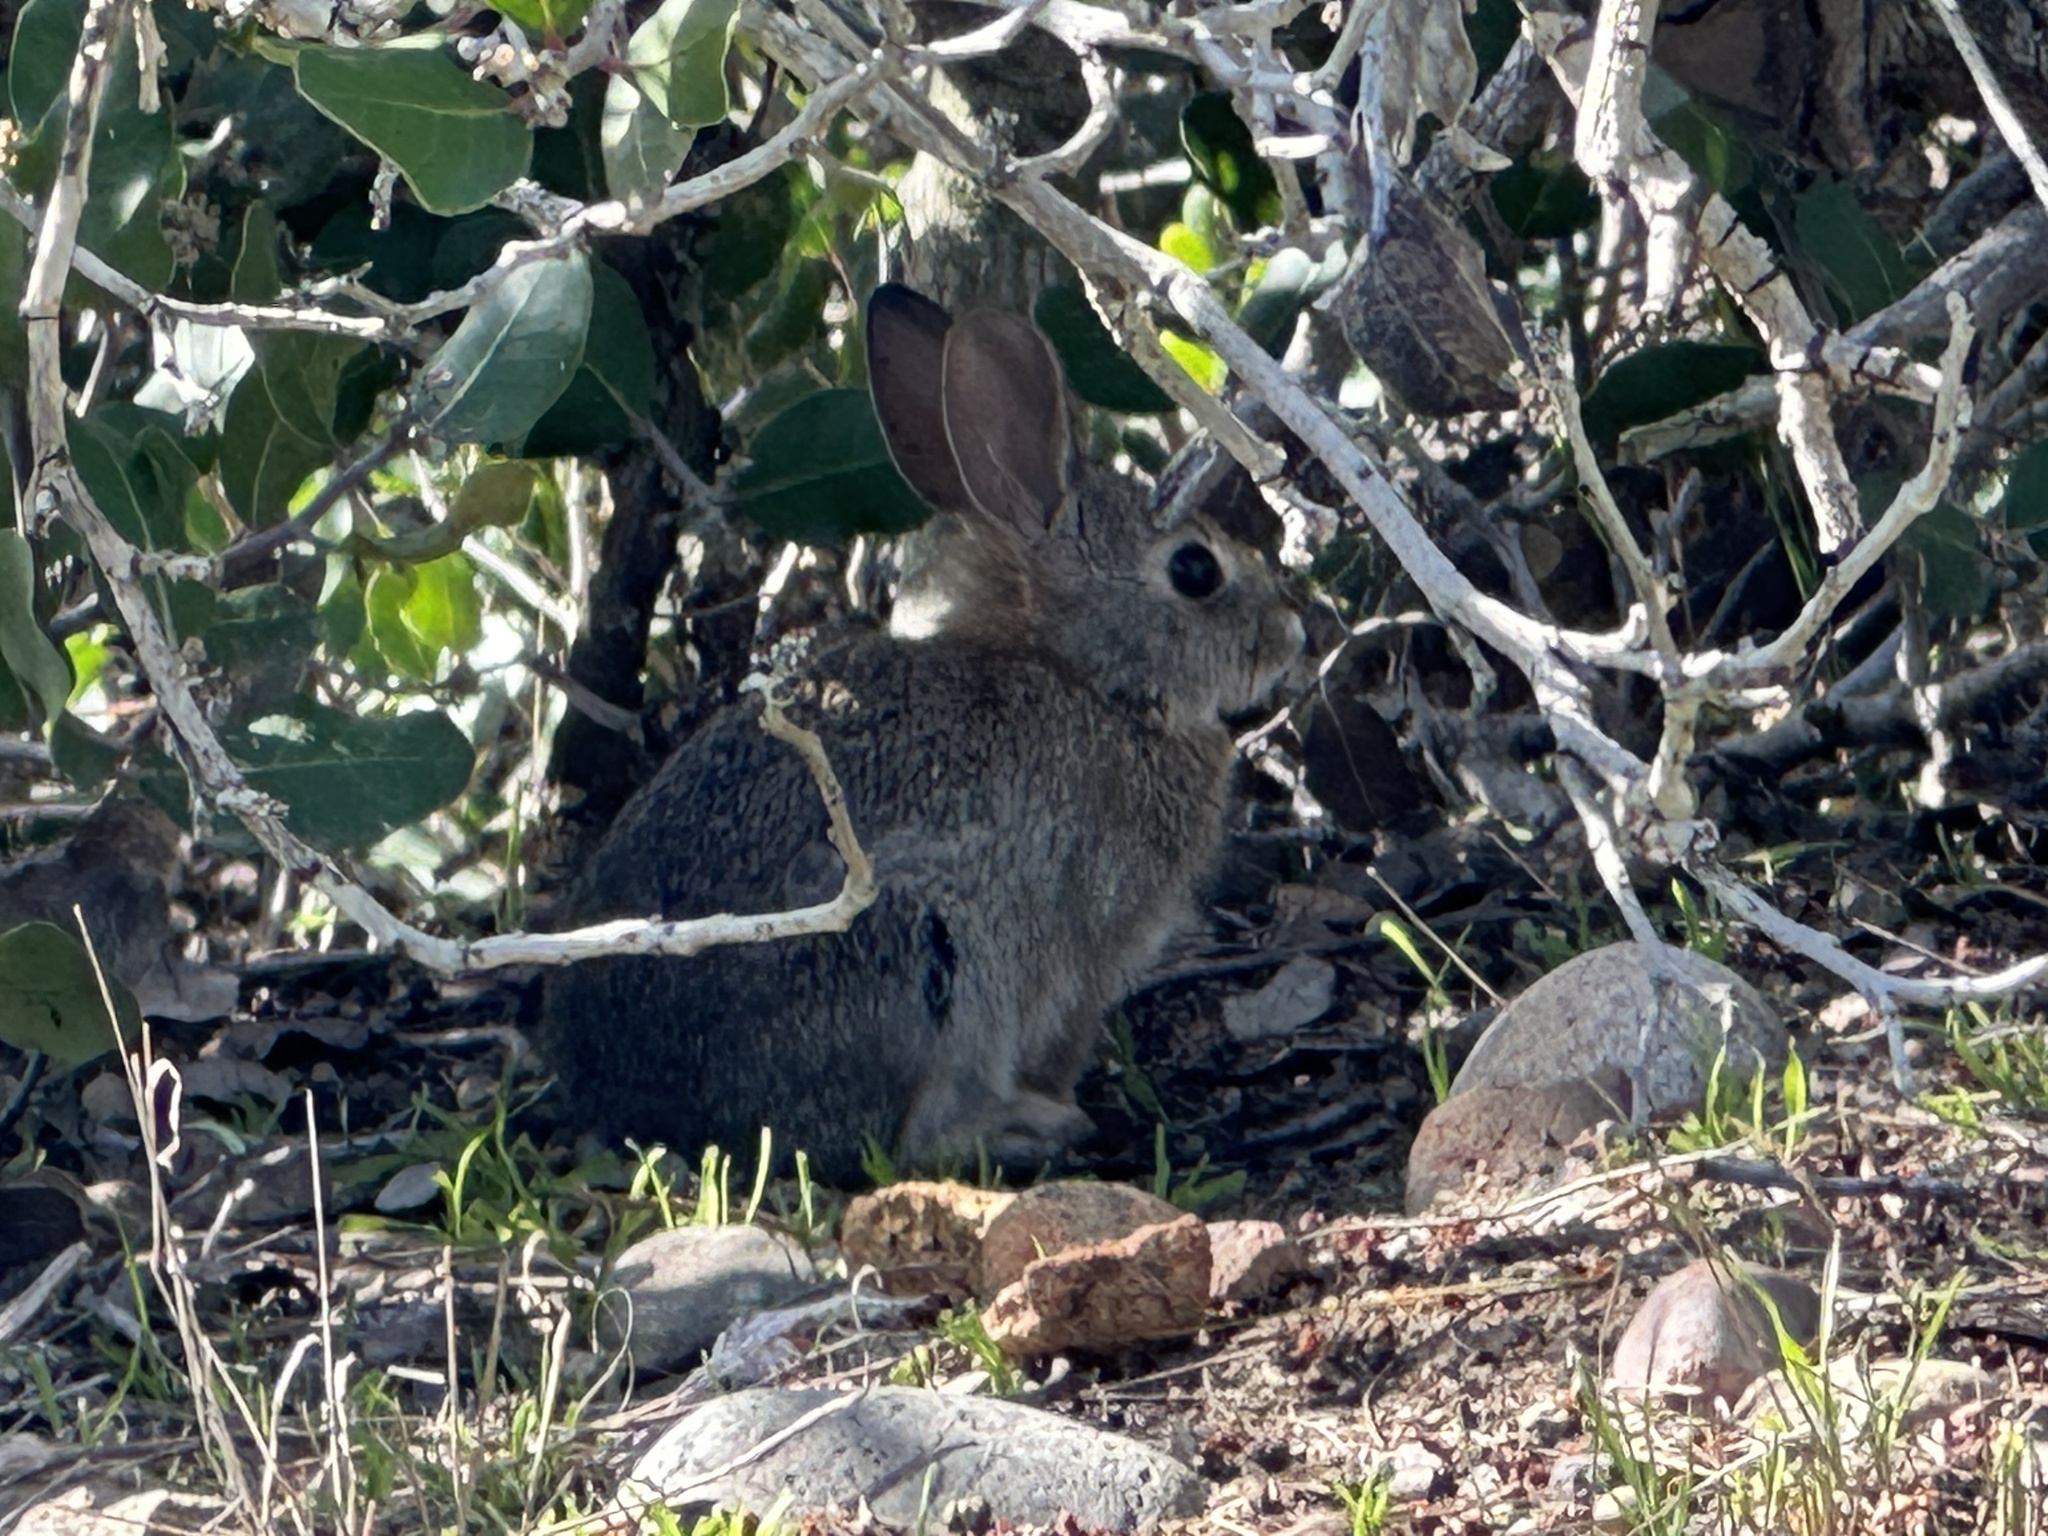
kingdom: Animalia
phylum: Chordata
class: Mammalia
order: Lagomorpha
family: Leporidae
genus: Sylvilagus
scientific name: Sylvilagus audubonii
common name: Desert cottontail
